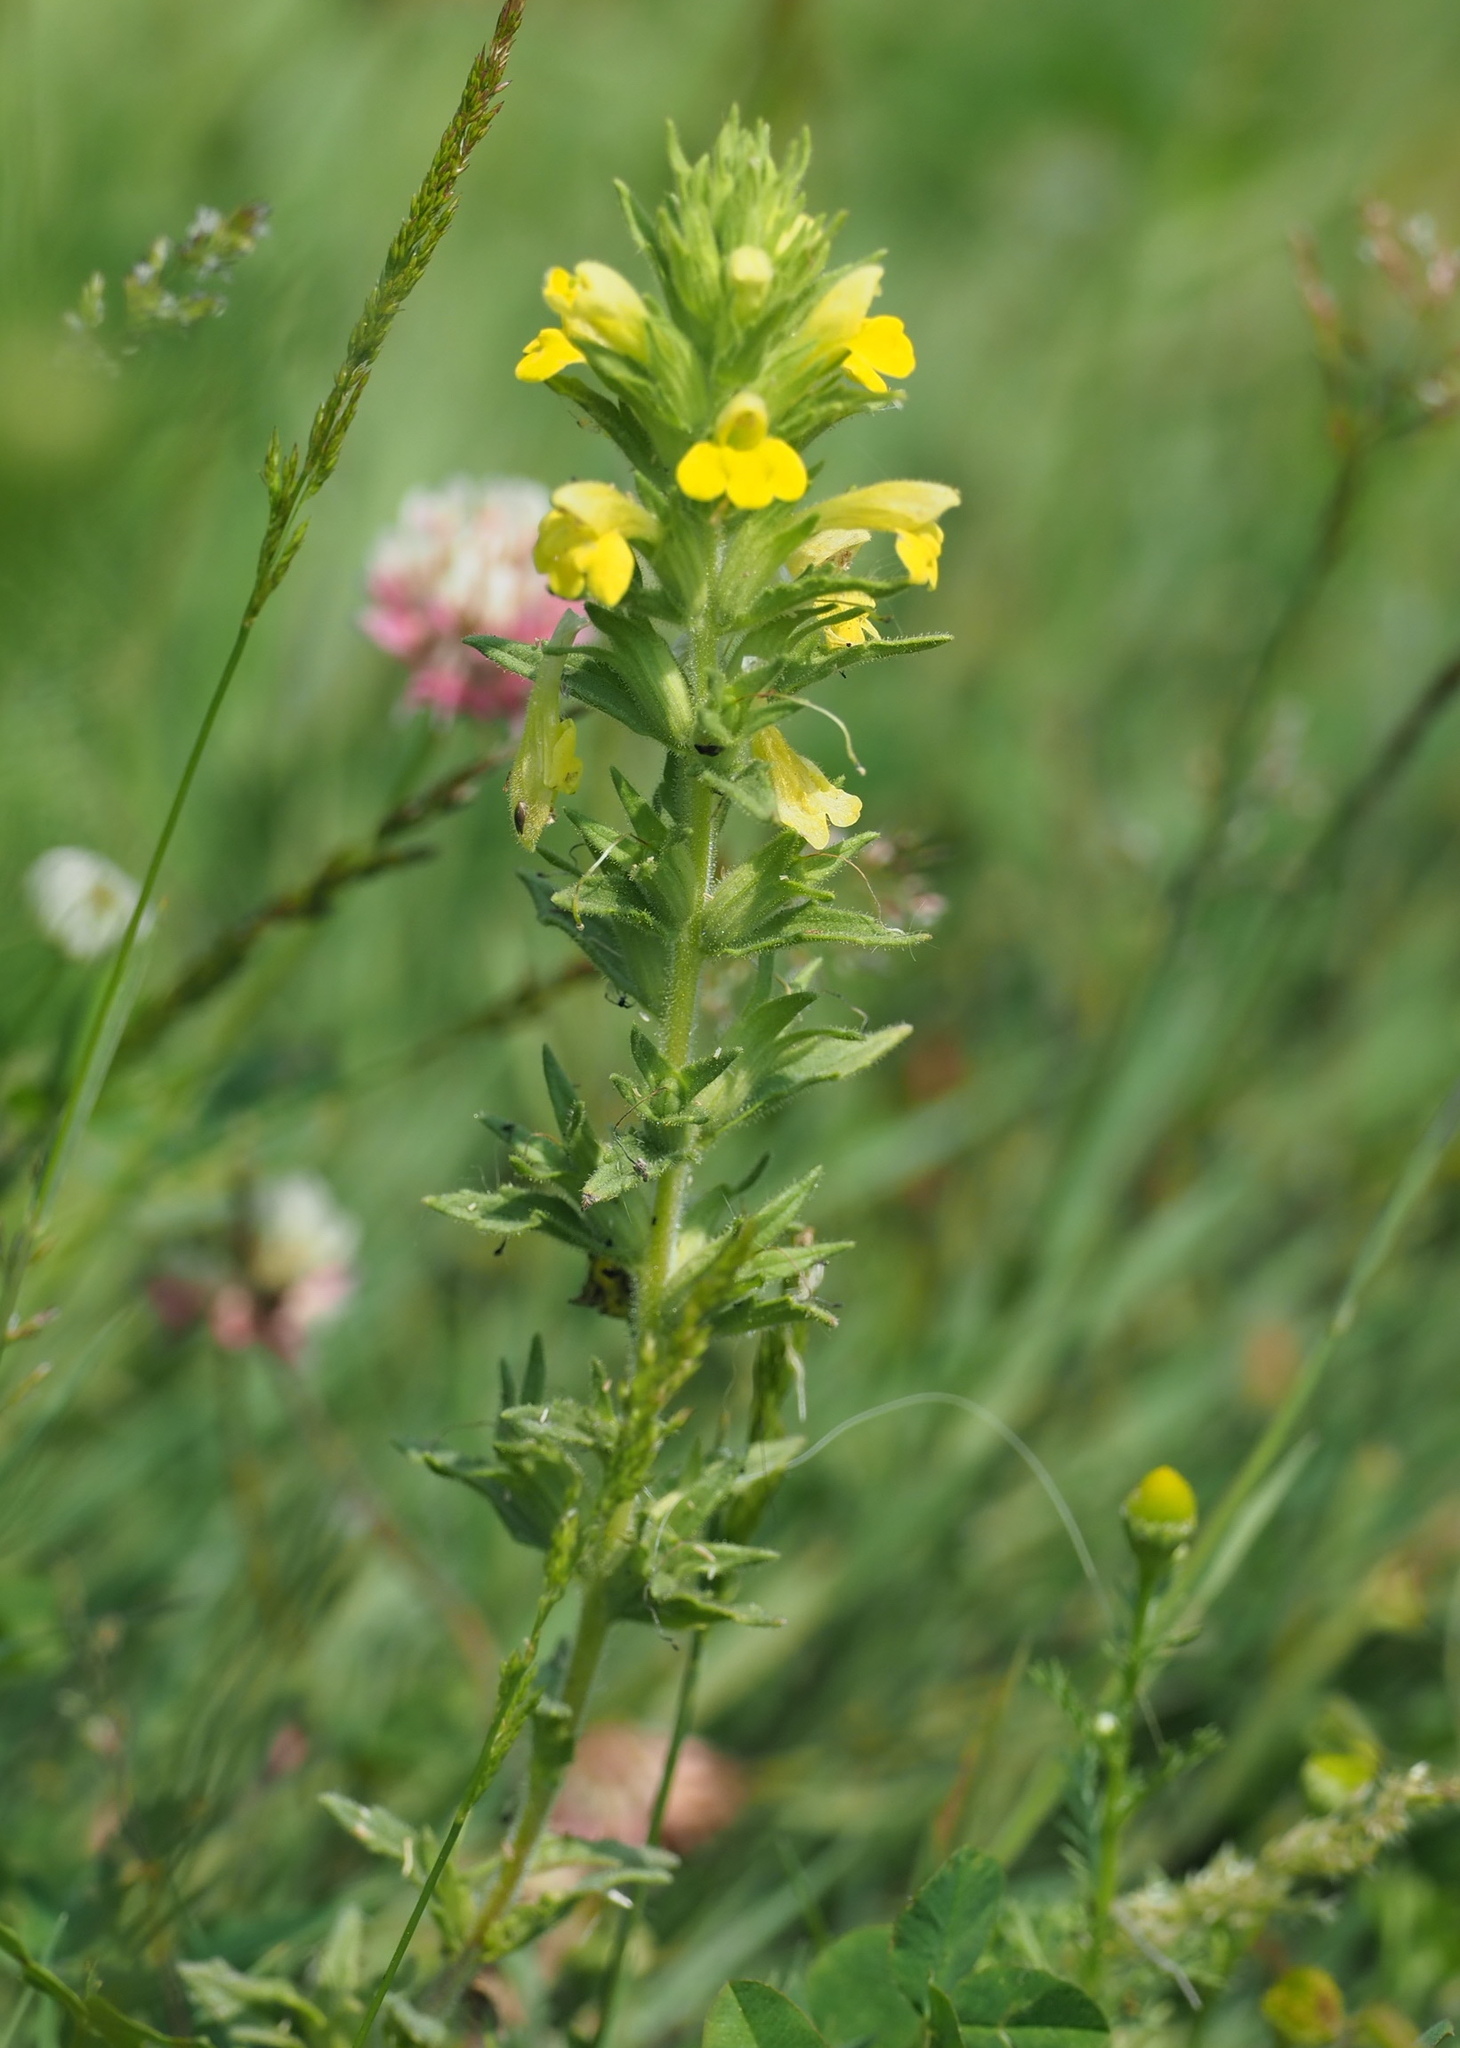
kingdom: Plantae
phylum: Tracheophyta
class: Magnoliopsida
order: Lamiales
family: Orobanchaceae
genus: Bellardia
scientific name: Bellardia viscosa
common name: Sticky parentucellia
